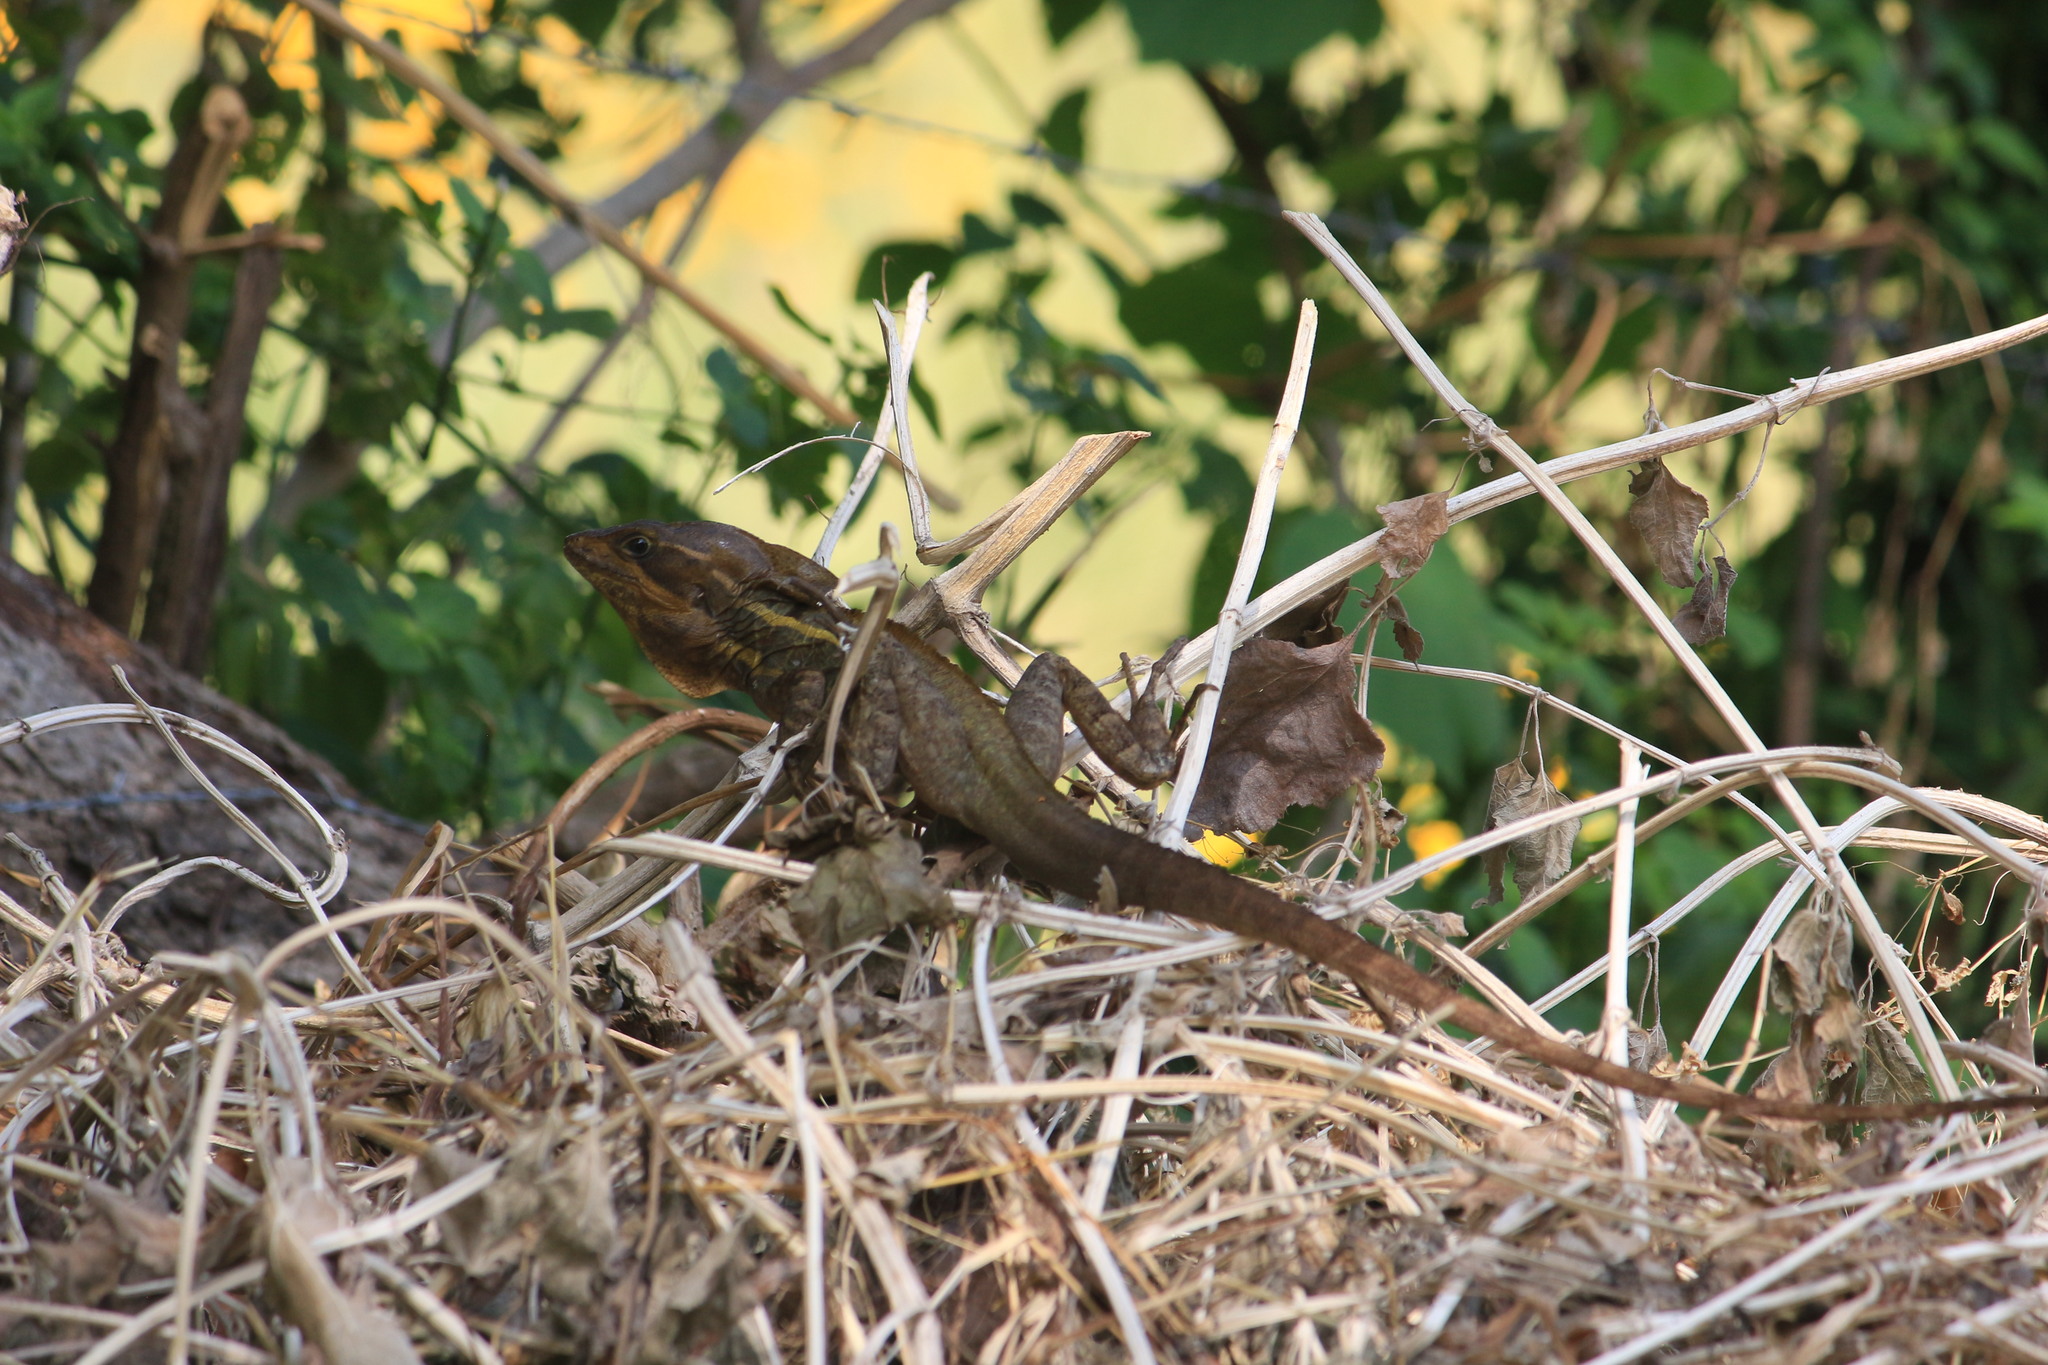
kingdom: Animalia
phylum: Chordata
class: Squamata
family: Corytophanidae
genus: Basiliscus
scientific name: Basiliscus vittatus
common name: Brown basilisk
